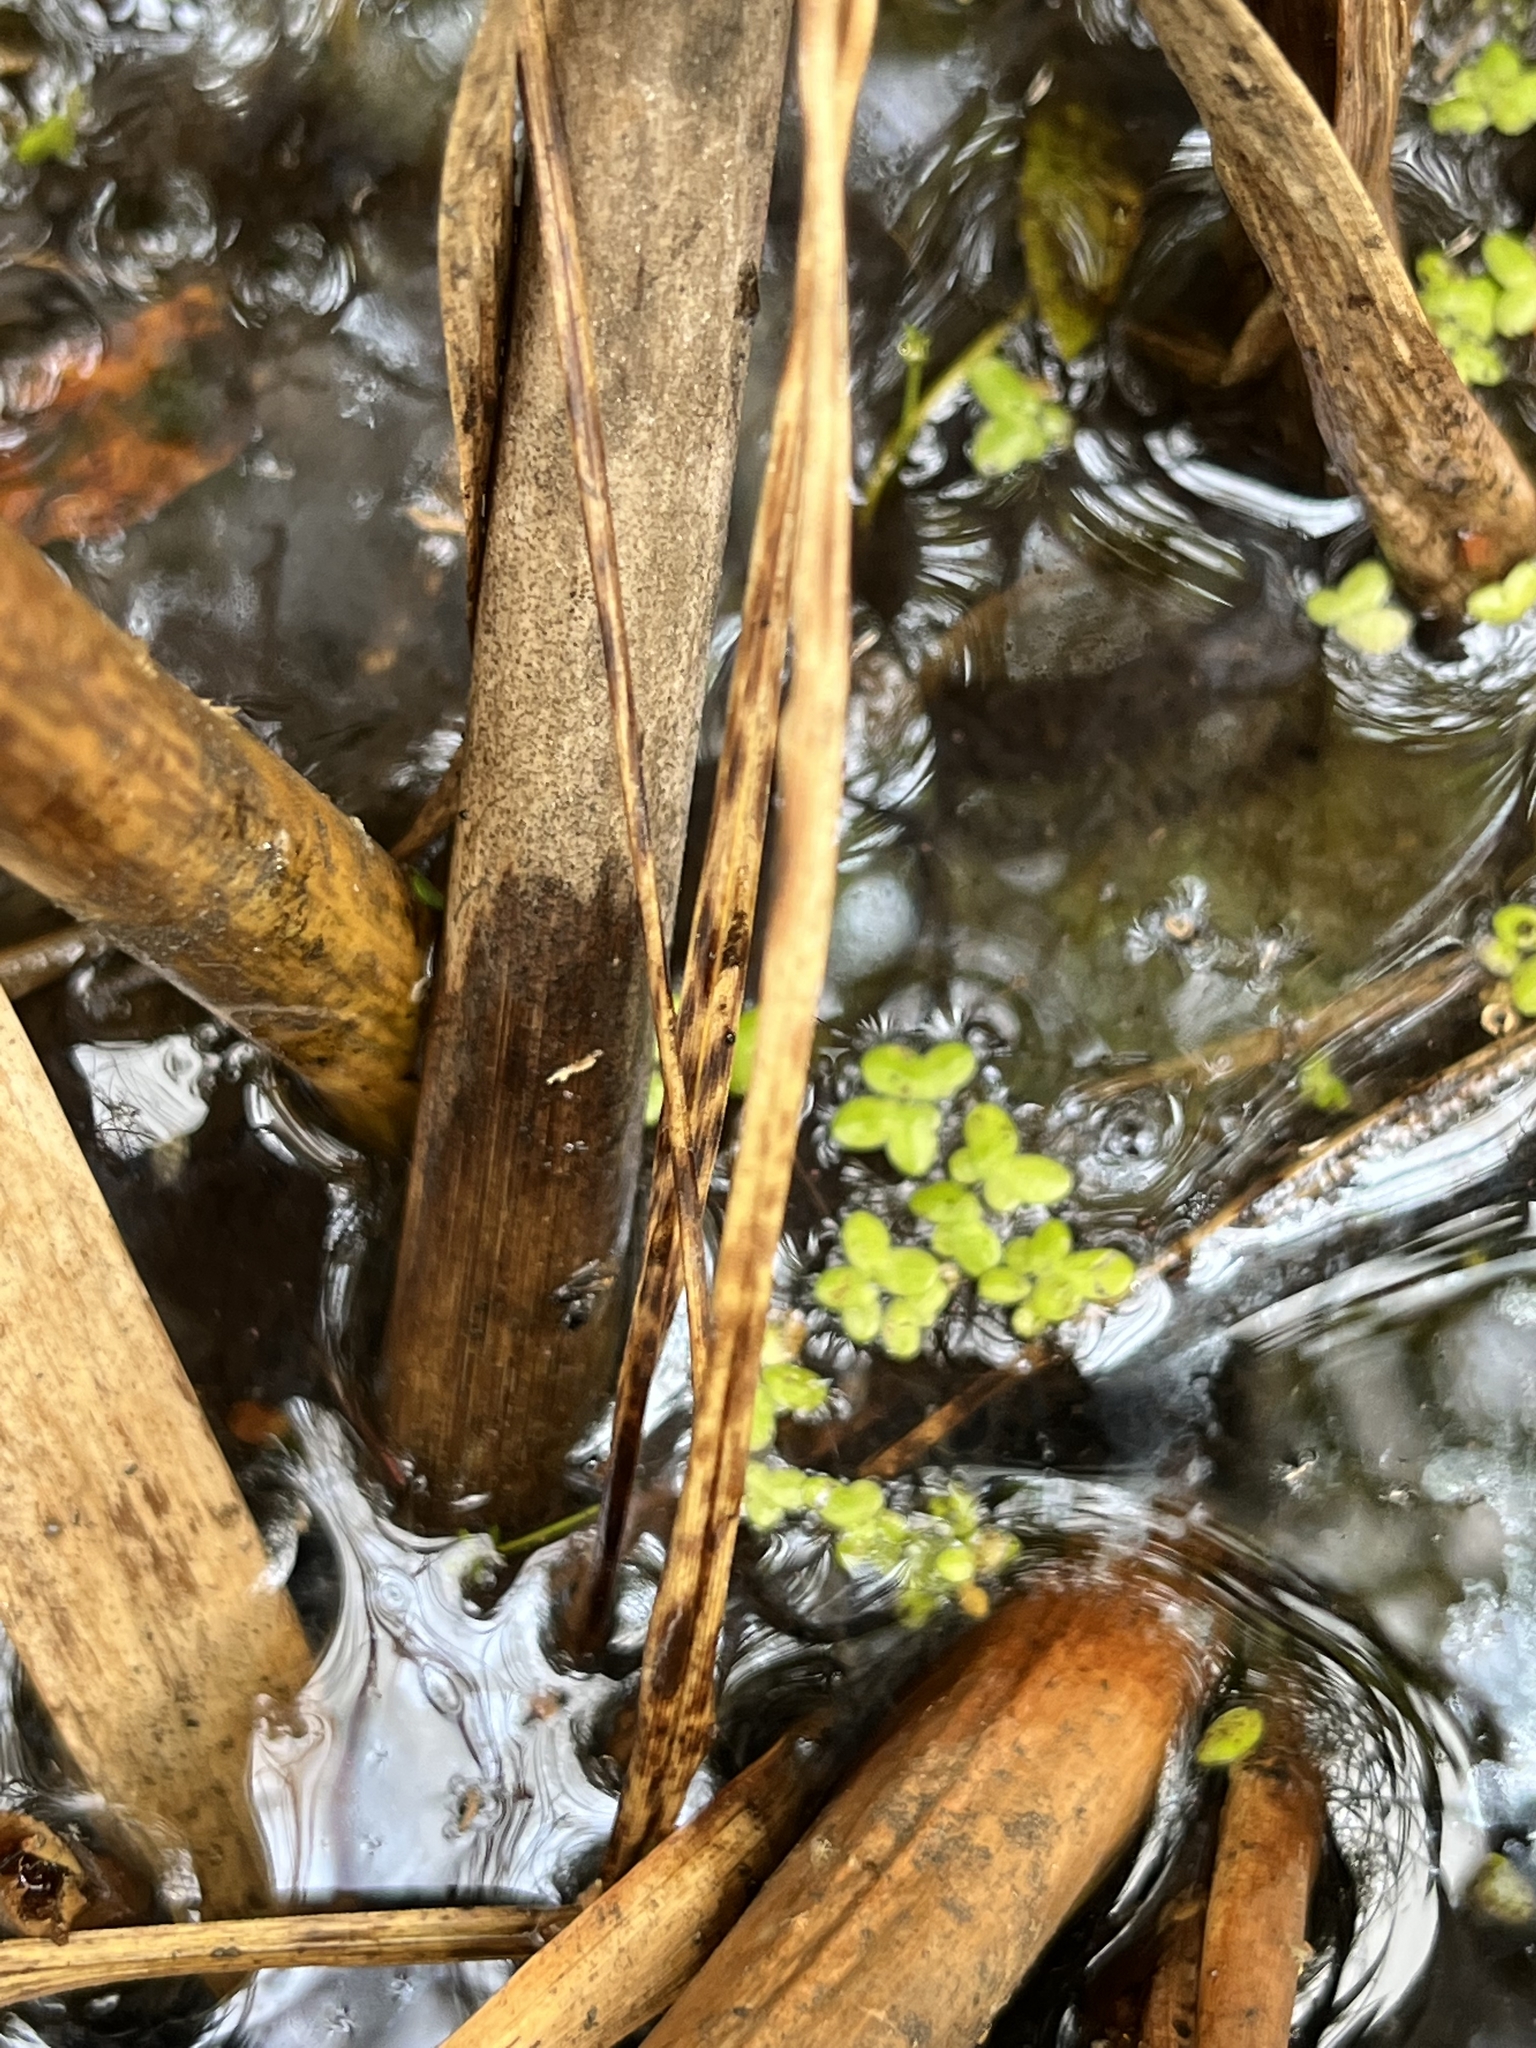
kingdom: Plantae
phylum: Tracheophyta
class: Liliopsida
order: Alismatales
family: Araceae
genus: Lemna
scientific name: Lemna minor
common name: Common duckweed
